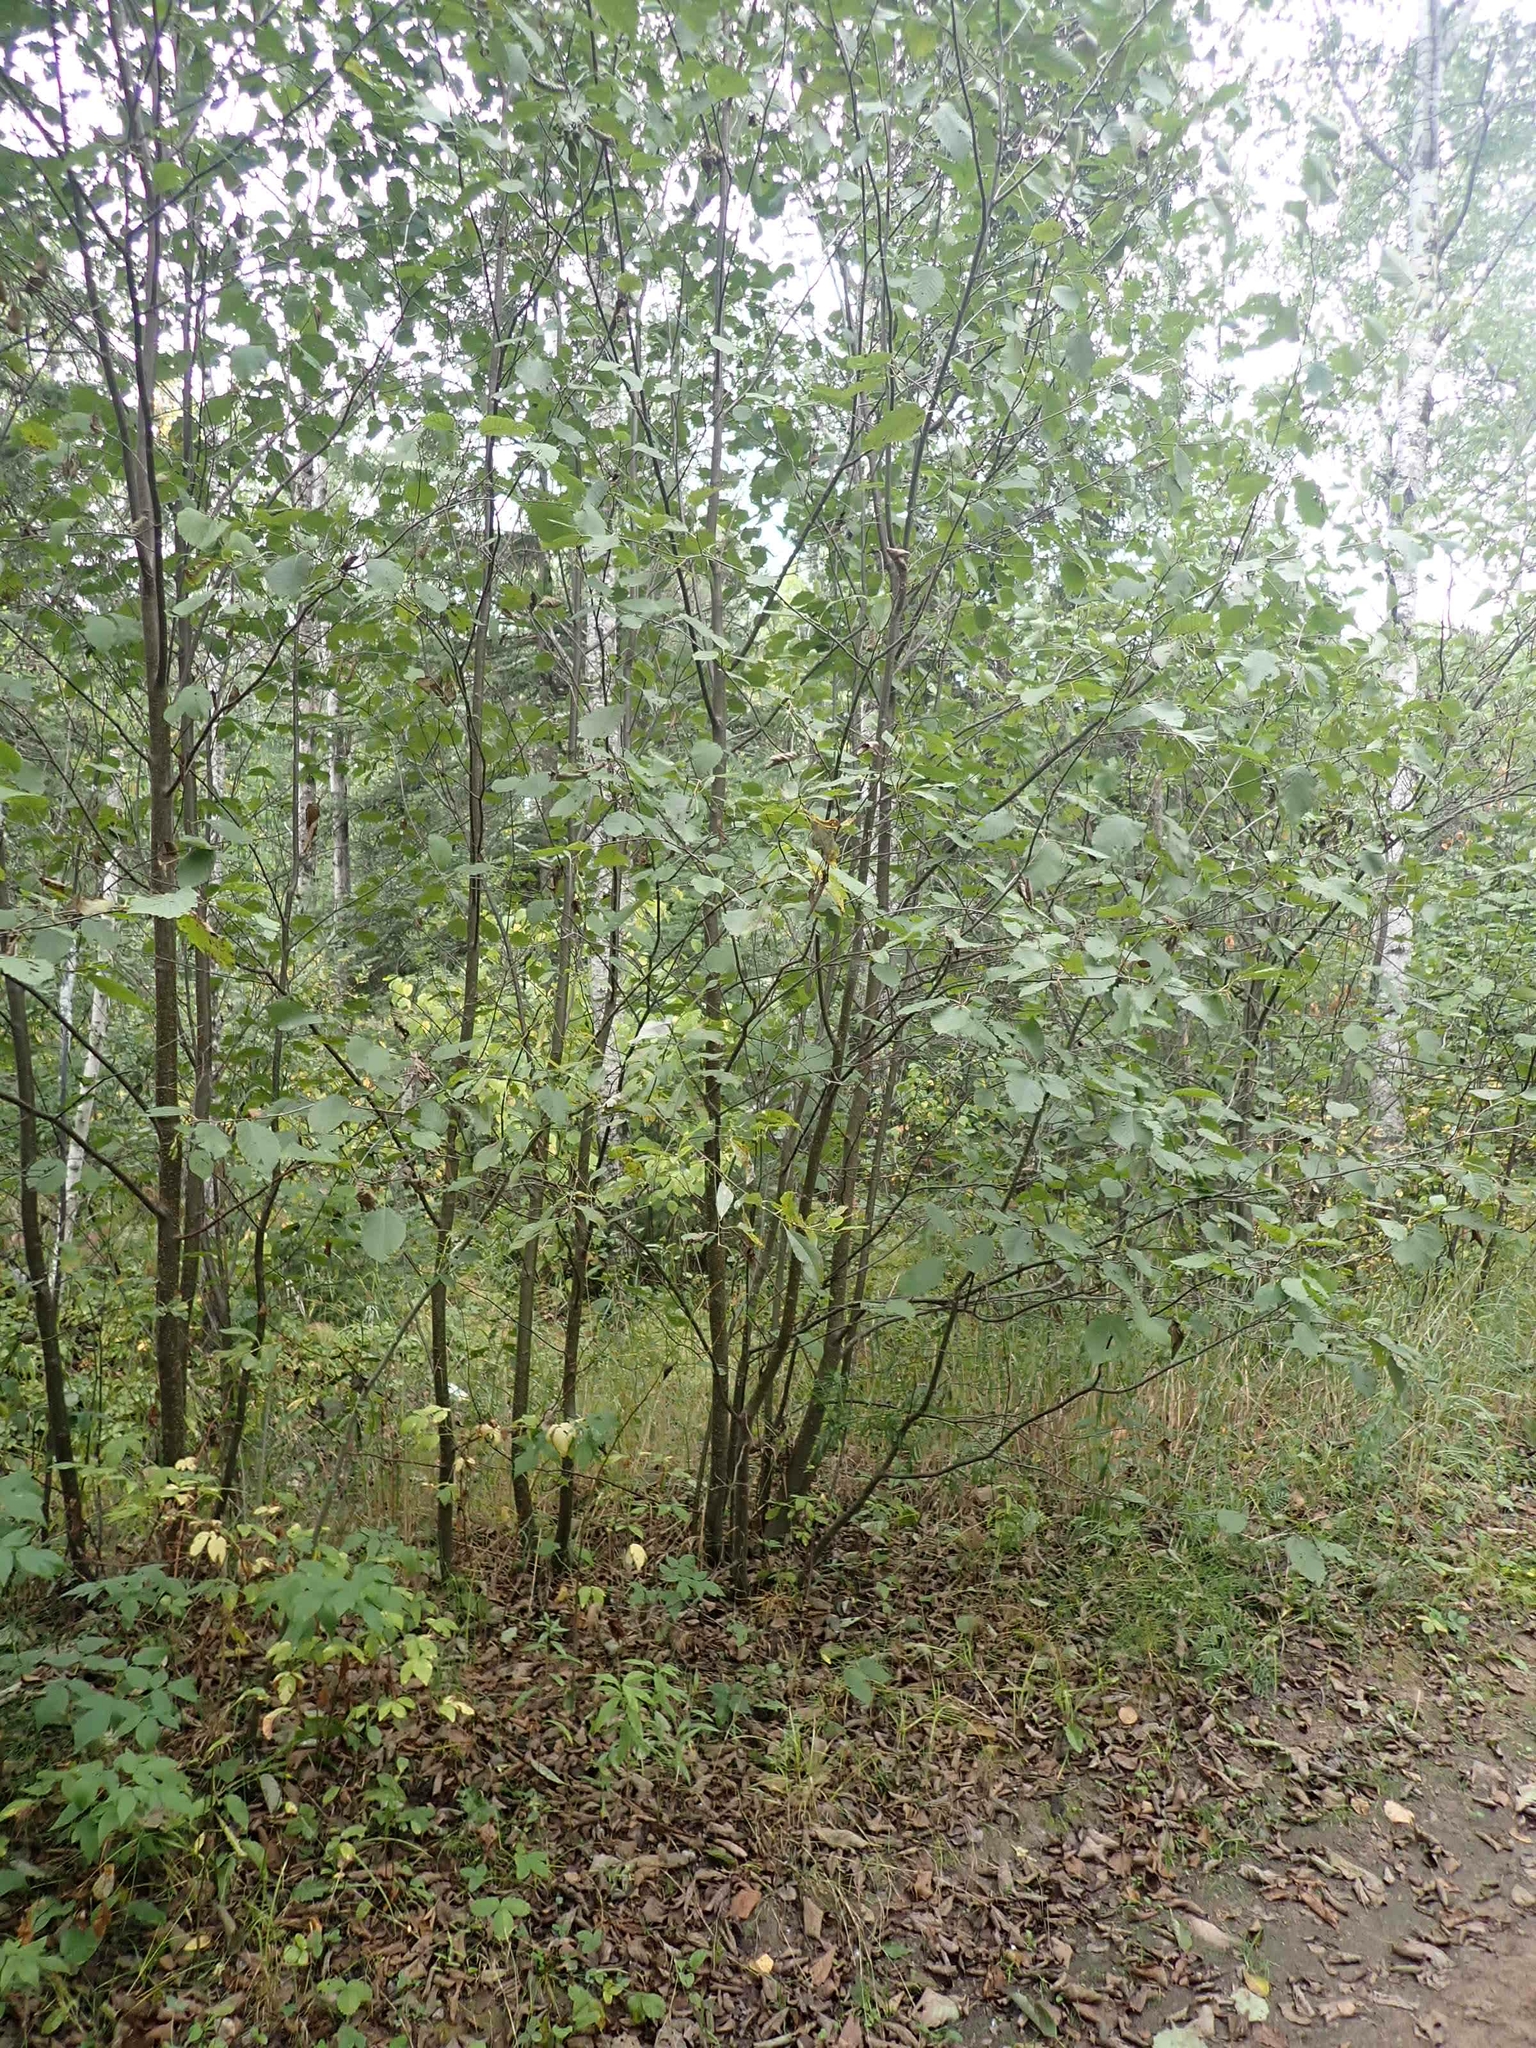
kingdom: Plantae
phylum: Tracheophyta
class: Magnoliopsida
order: Fagales
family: Betulaceae
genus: Alnus
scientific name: Alnus incana
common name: Grey alder
